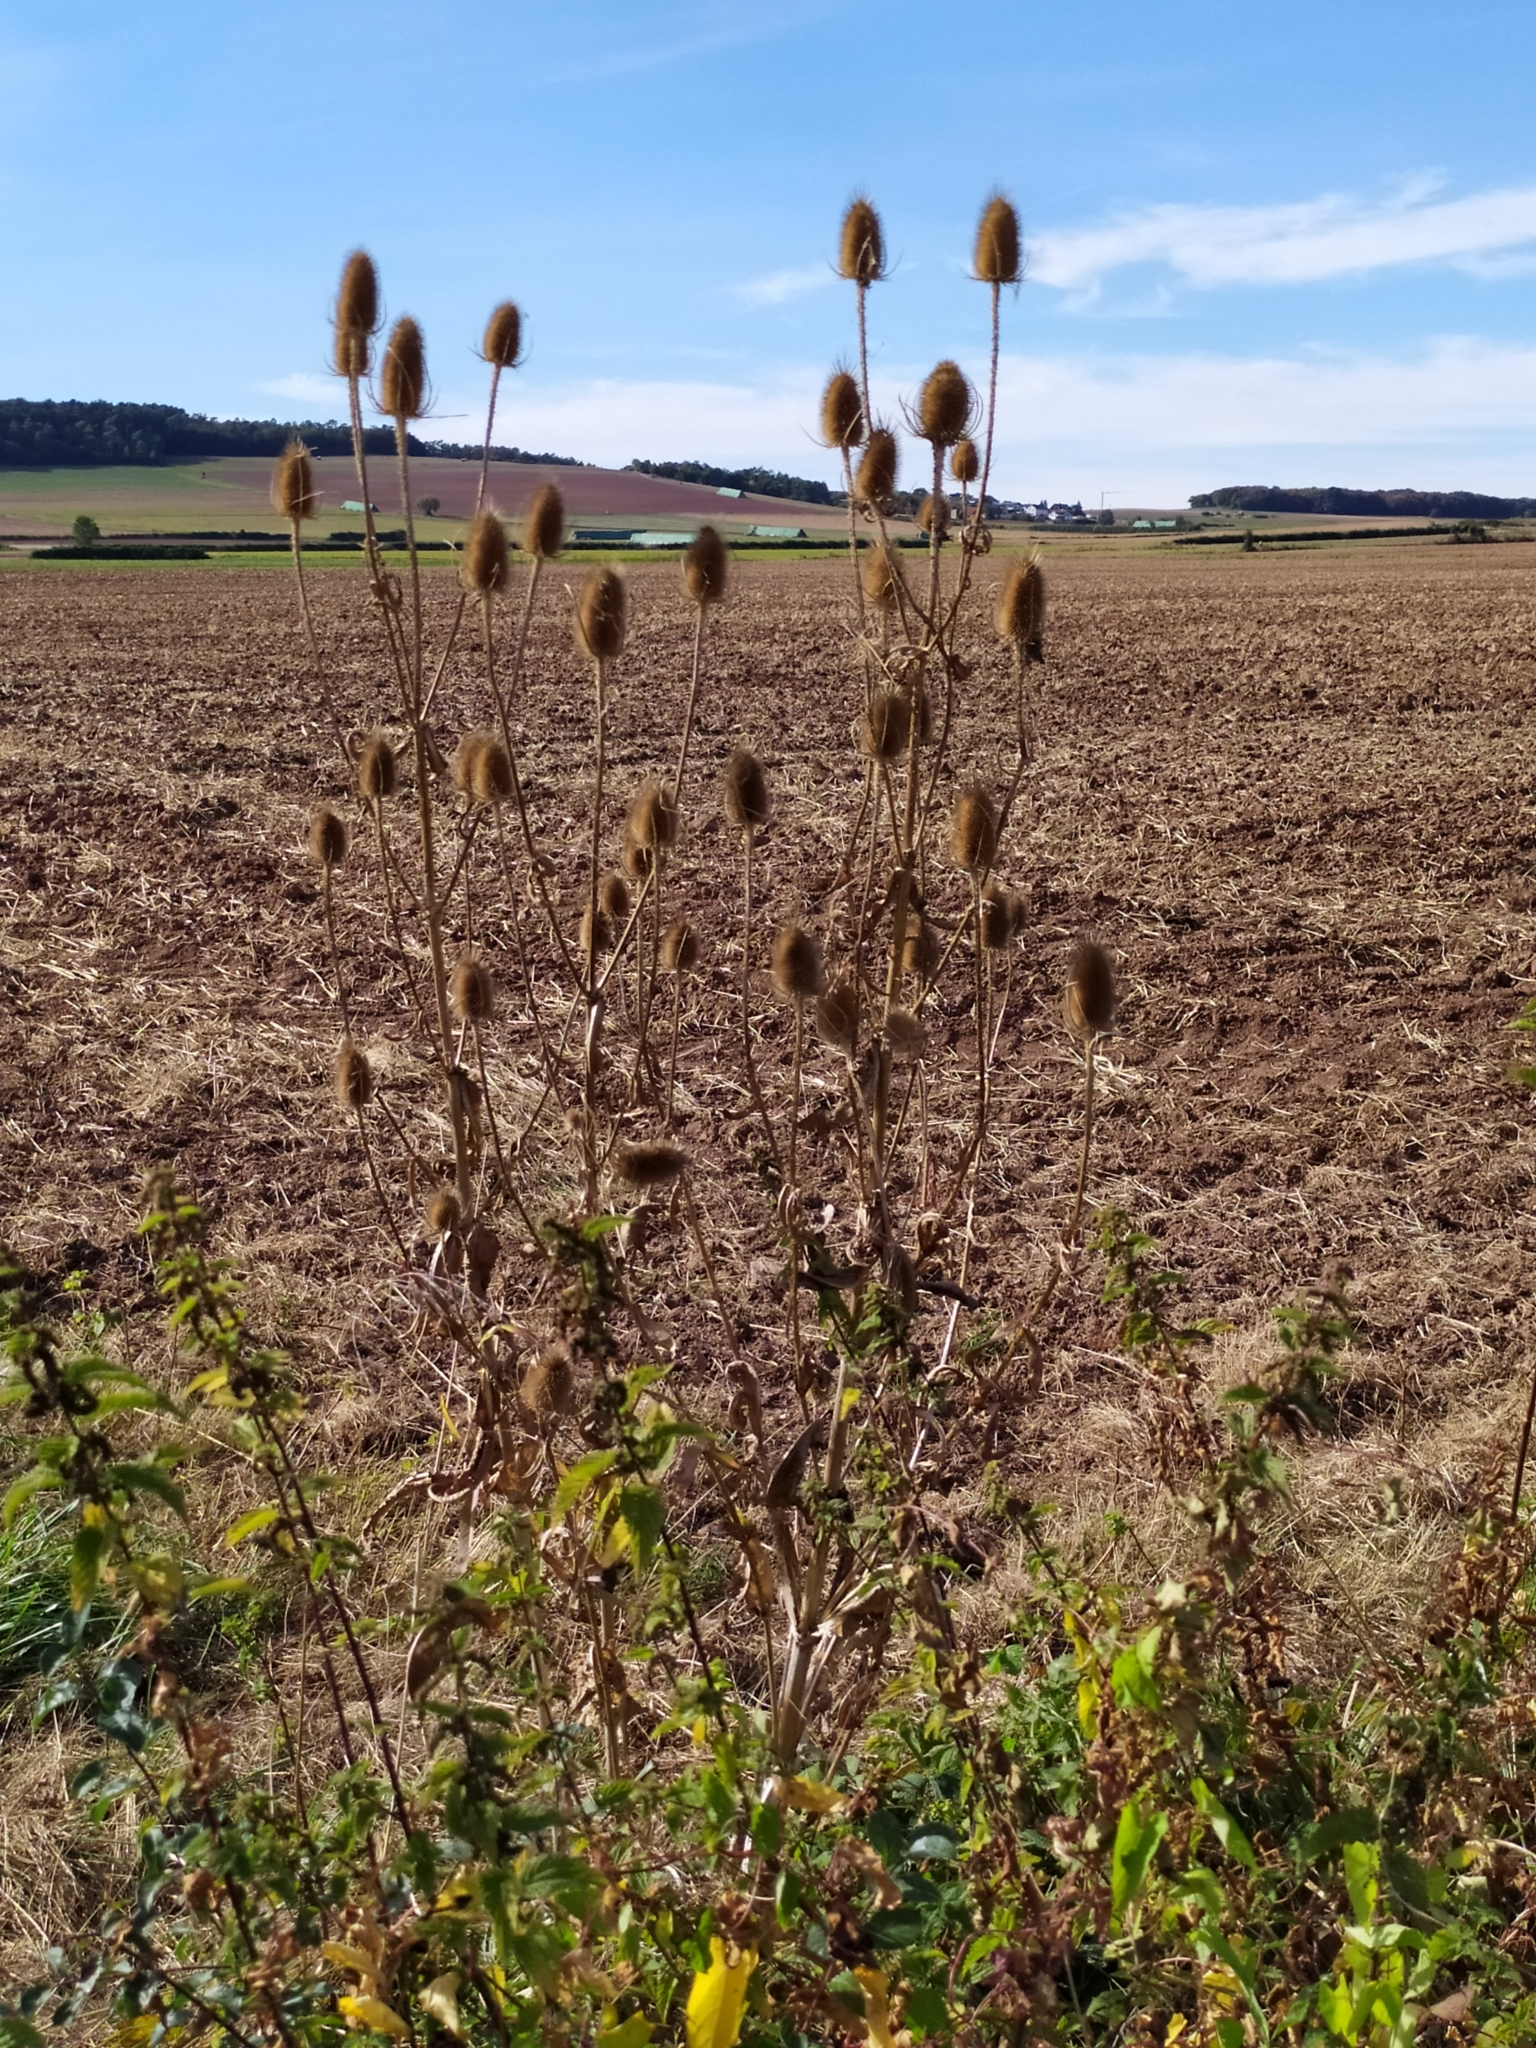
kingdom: Plantae
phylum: Tracheophyta
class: Magnoliopsida
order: Dipsacales
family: Caprifoliaceae
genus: Dipsacus
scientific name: Dipsacus fullonum
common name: Teasel
